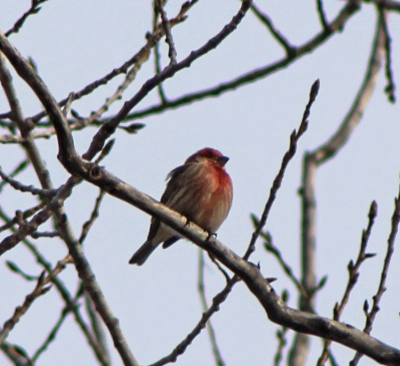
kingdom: Animalia
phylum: Chordata
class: Aves
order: Passeriformes
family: Fringillidae
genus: Haemorhous
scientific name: Haemorhous mexicanus
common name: House finch
